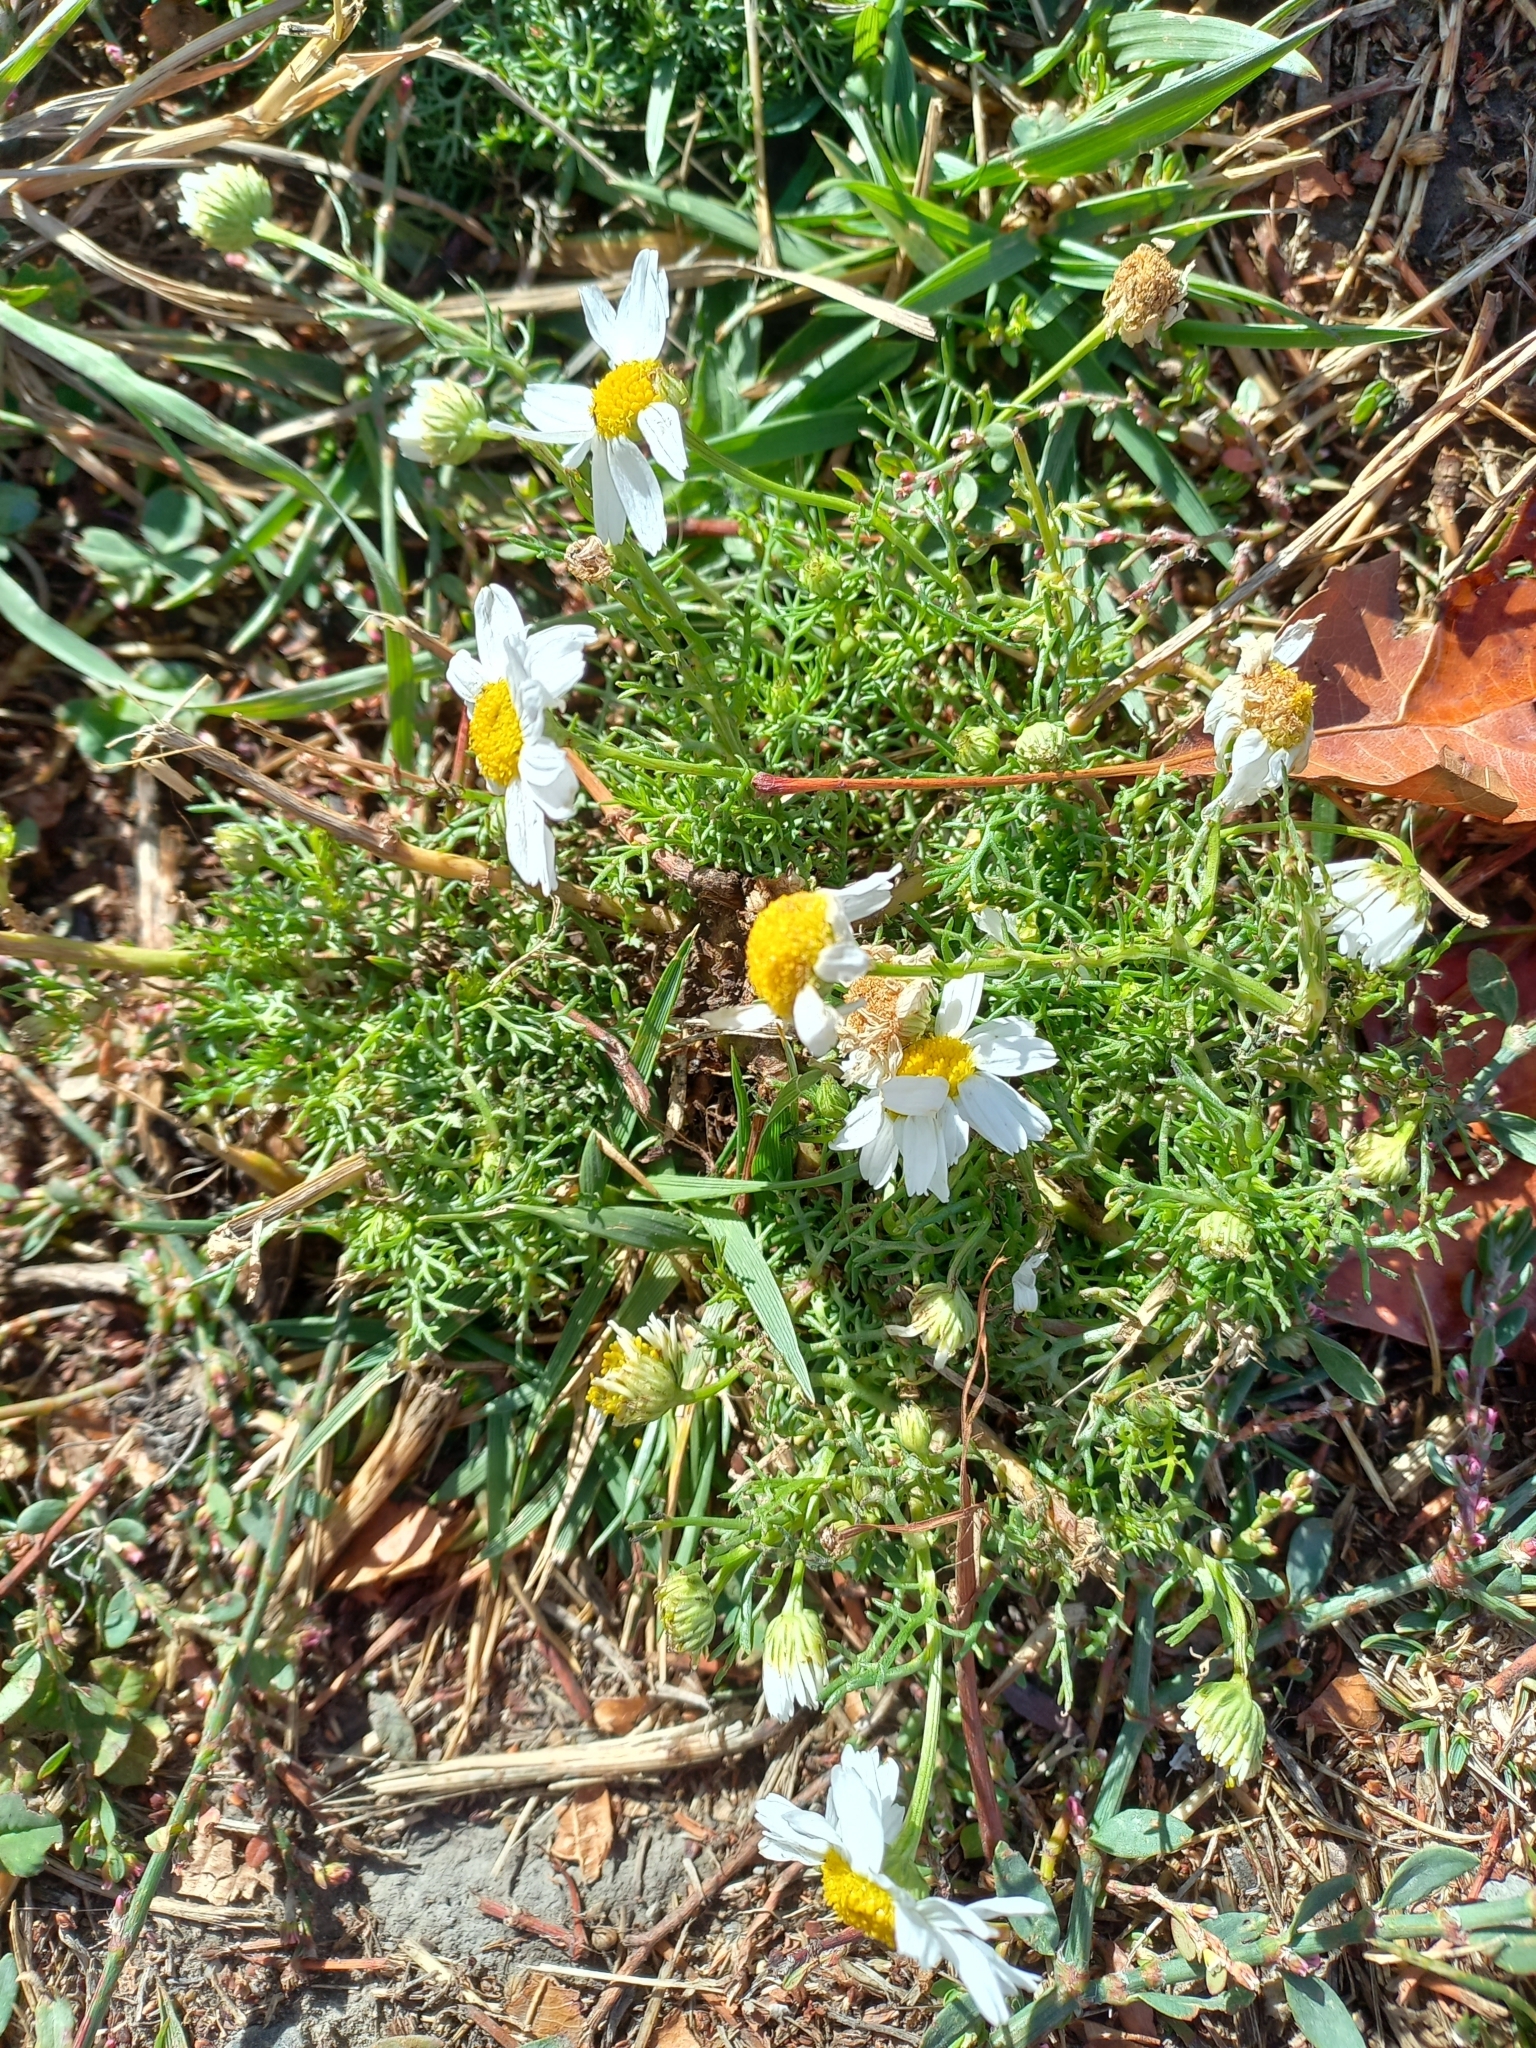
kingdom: Plantae
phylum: Tracheophyta
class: Magnoliopsida
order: Asterales
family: Asteraceae
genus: Tripleurospermum
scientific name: Tripleurospermum inodorum
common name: Scentless mayweed
